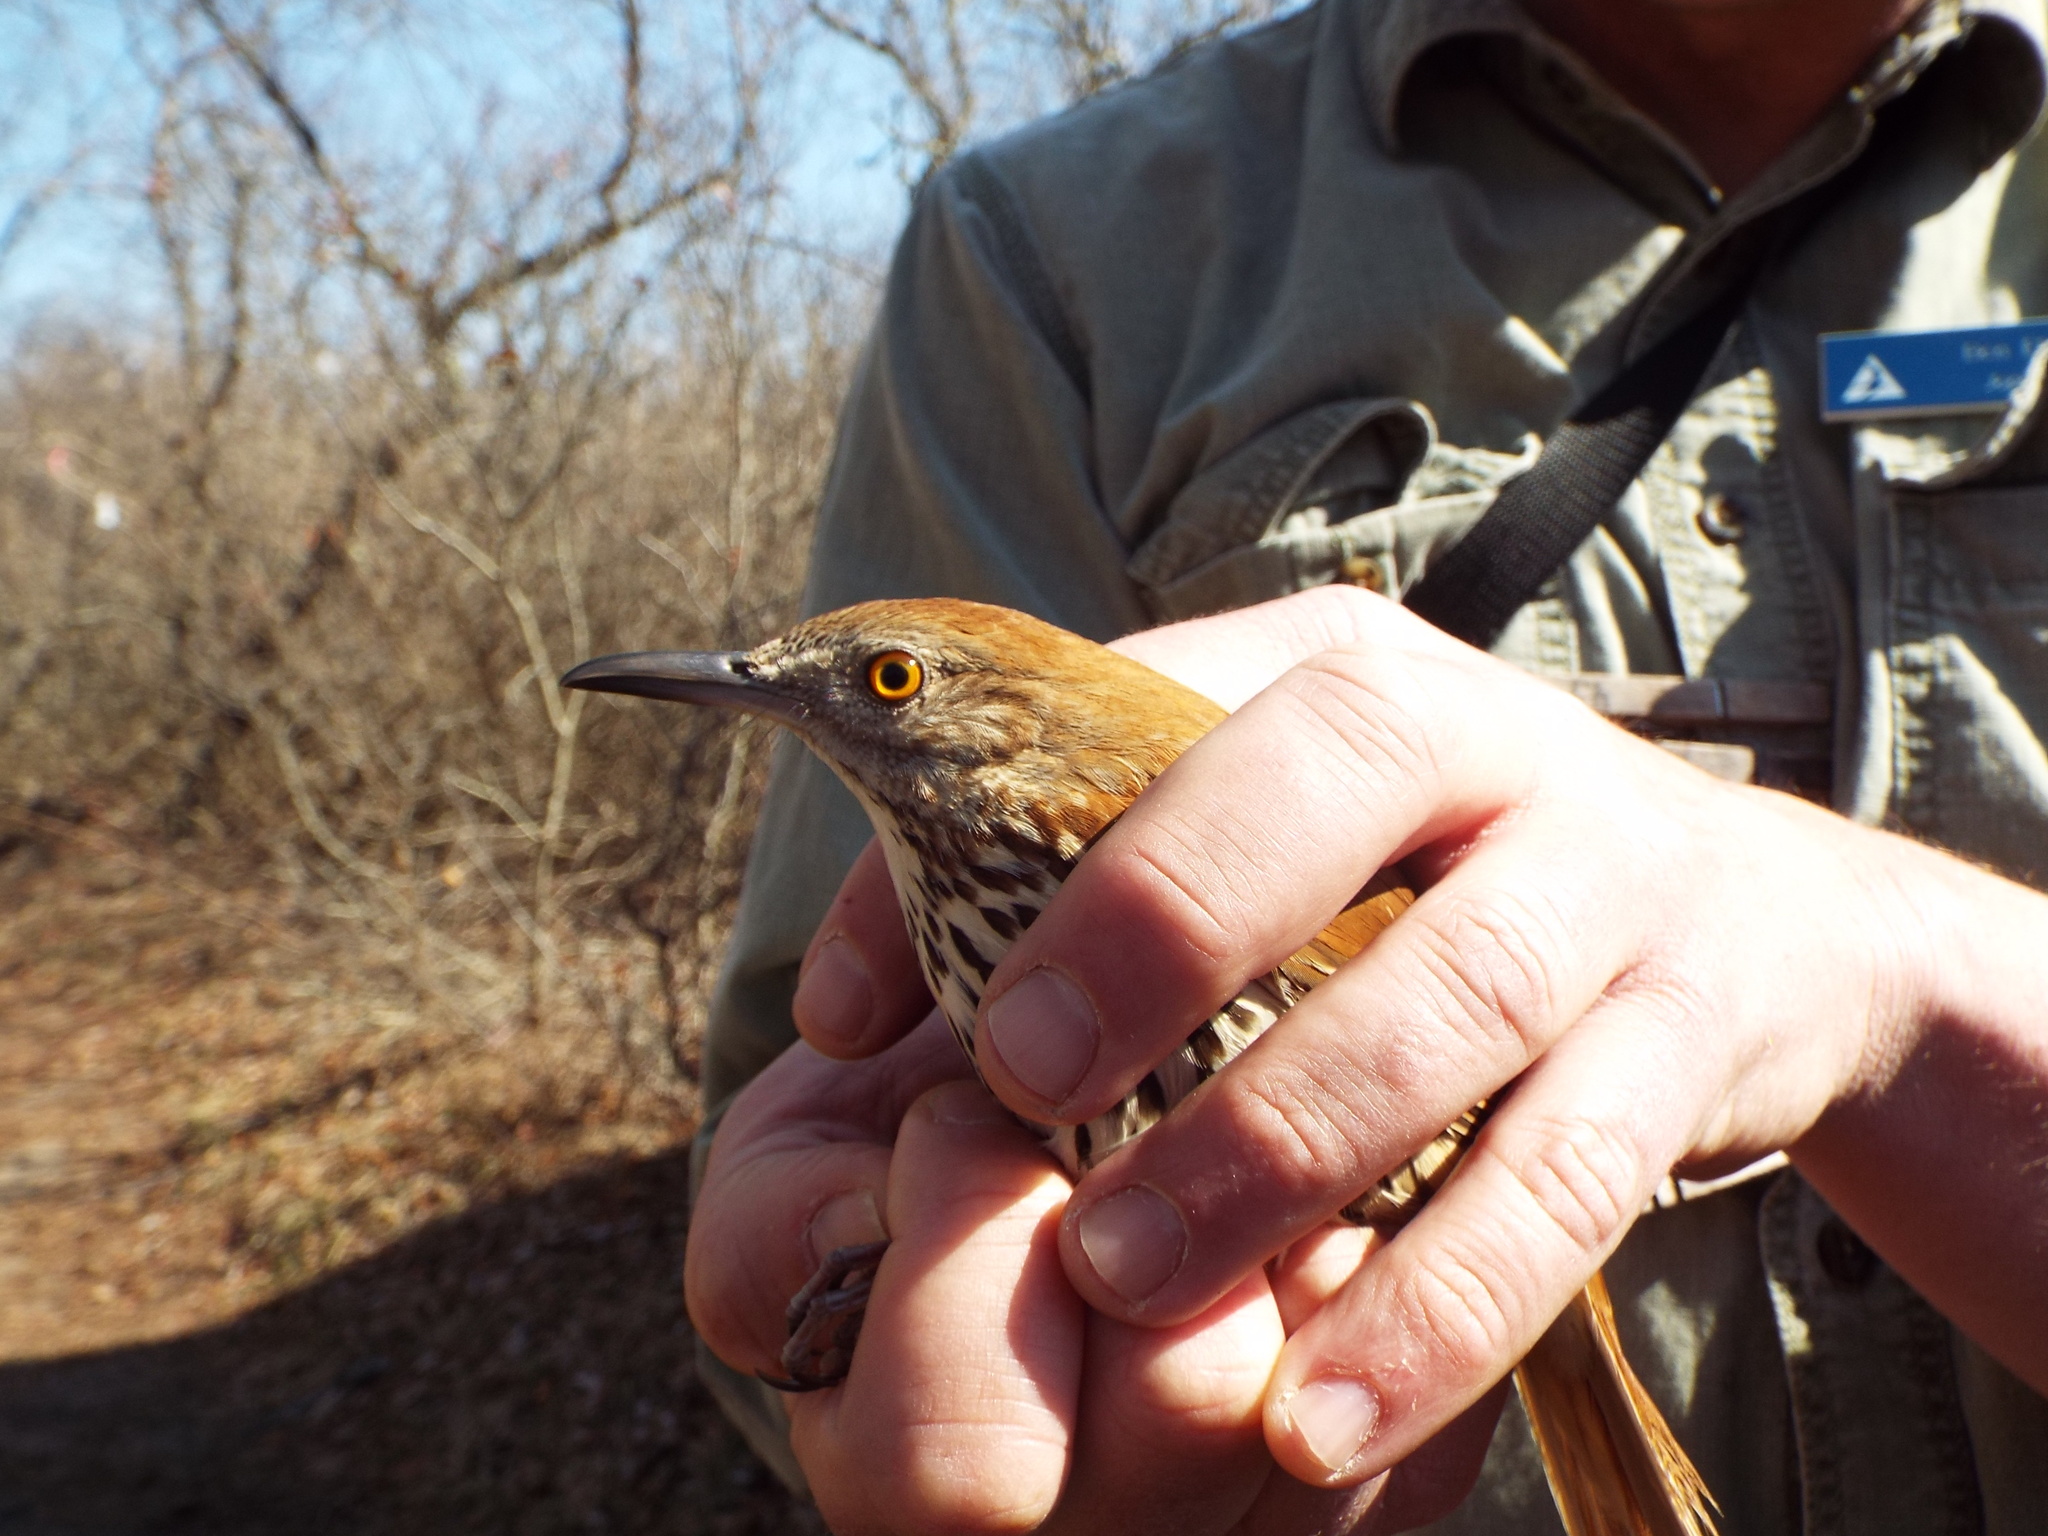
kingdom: Animalia
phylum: Chordata
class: Aves
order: Passeriformes
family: Mimidae
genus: Toxostoma
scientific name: Toxostoma rufum
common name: Brown thrasher
